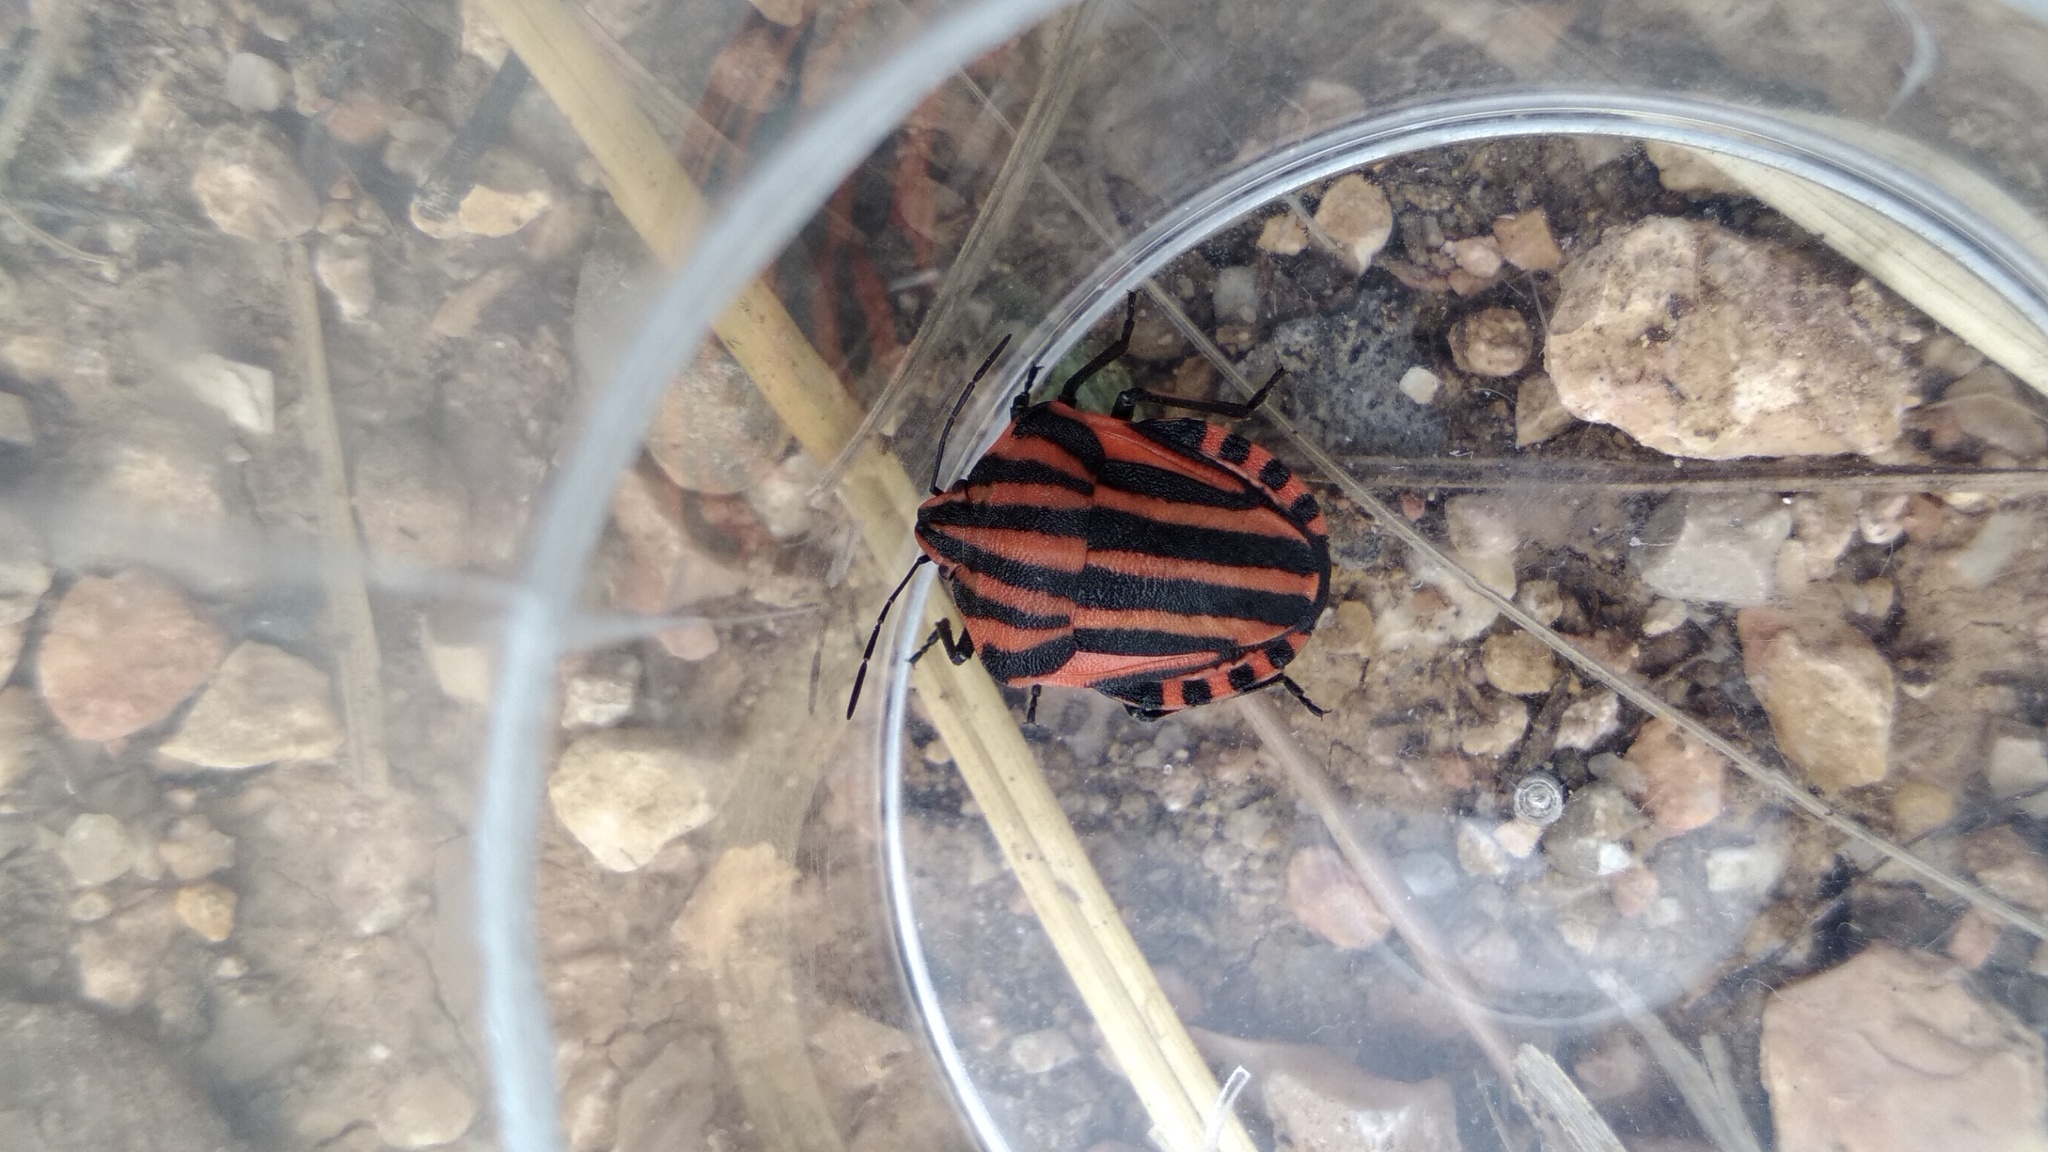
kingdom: Animalia
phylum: Arthropoda
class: Insecta
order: Hemiptera
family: Pentatomidae
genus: Graphosoma
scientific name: Graphosoma italicum
